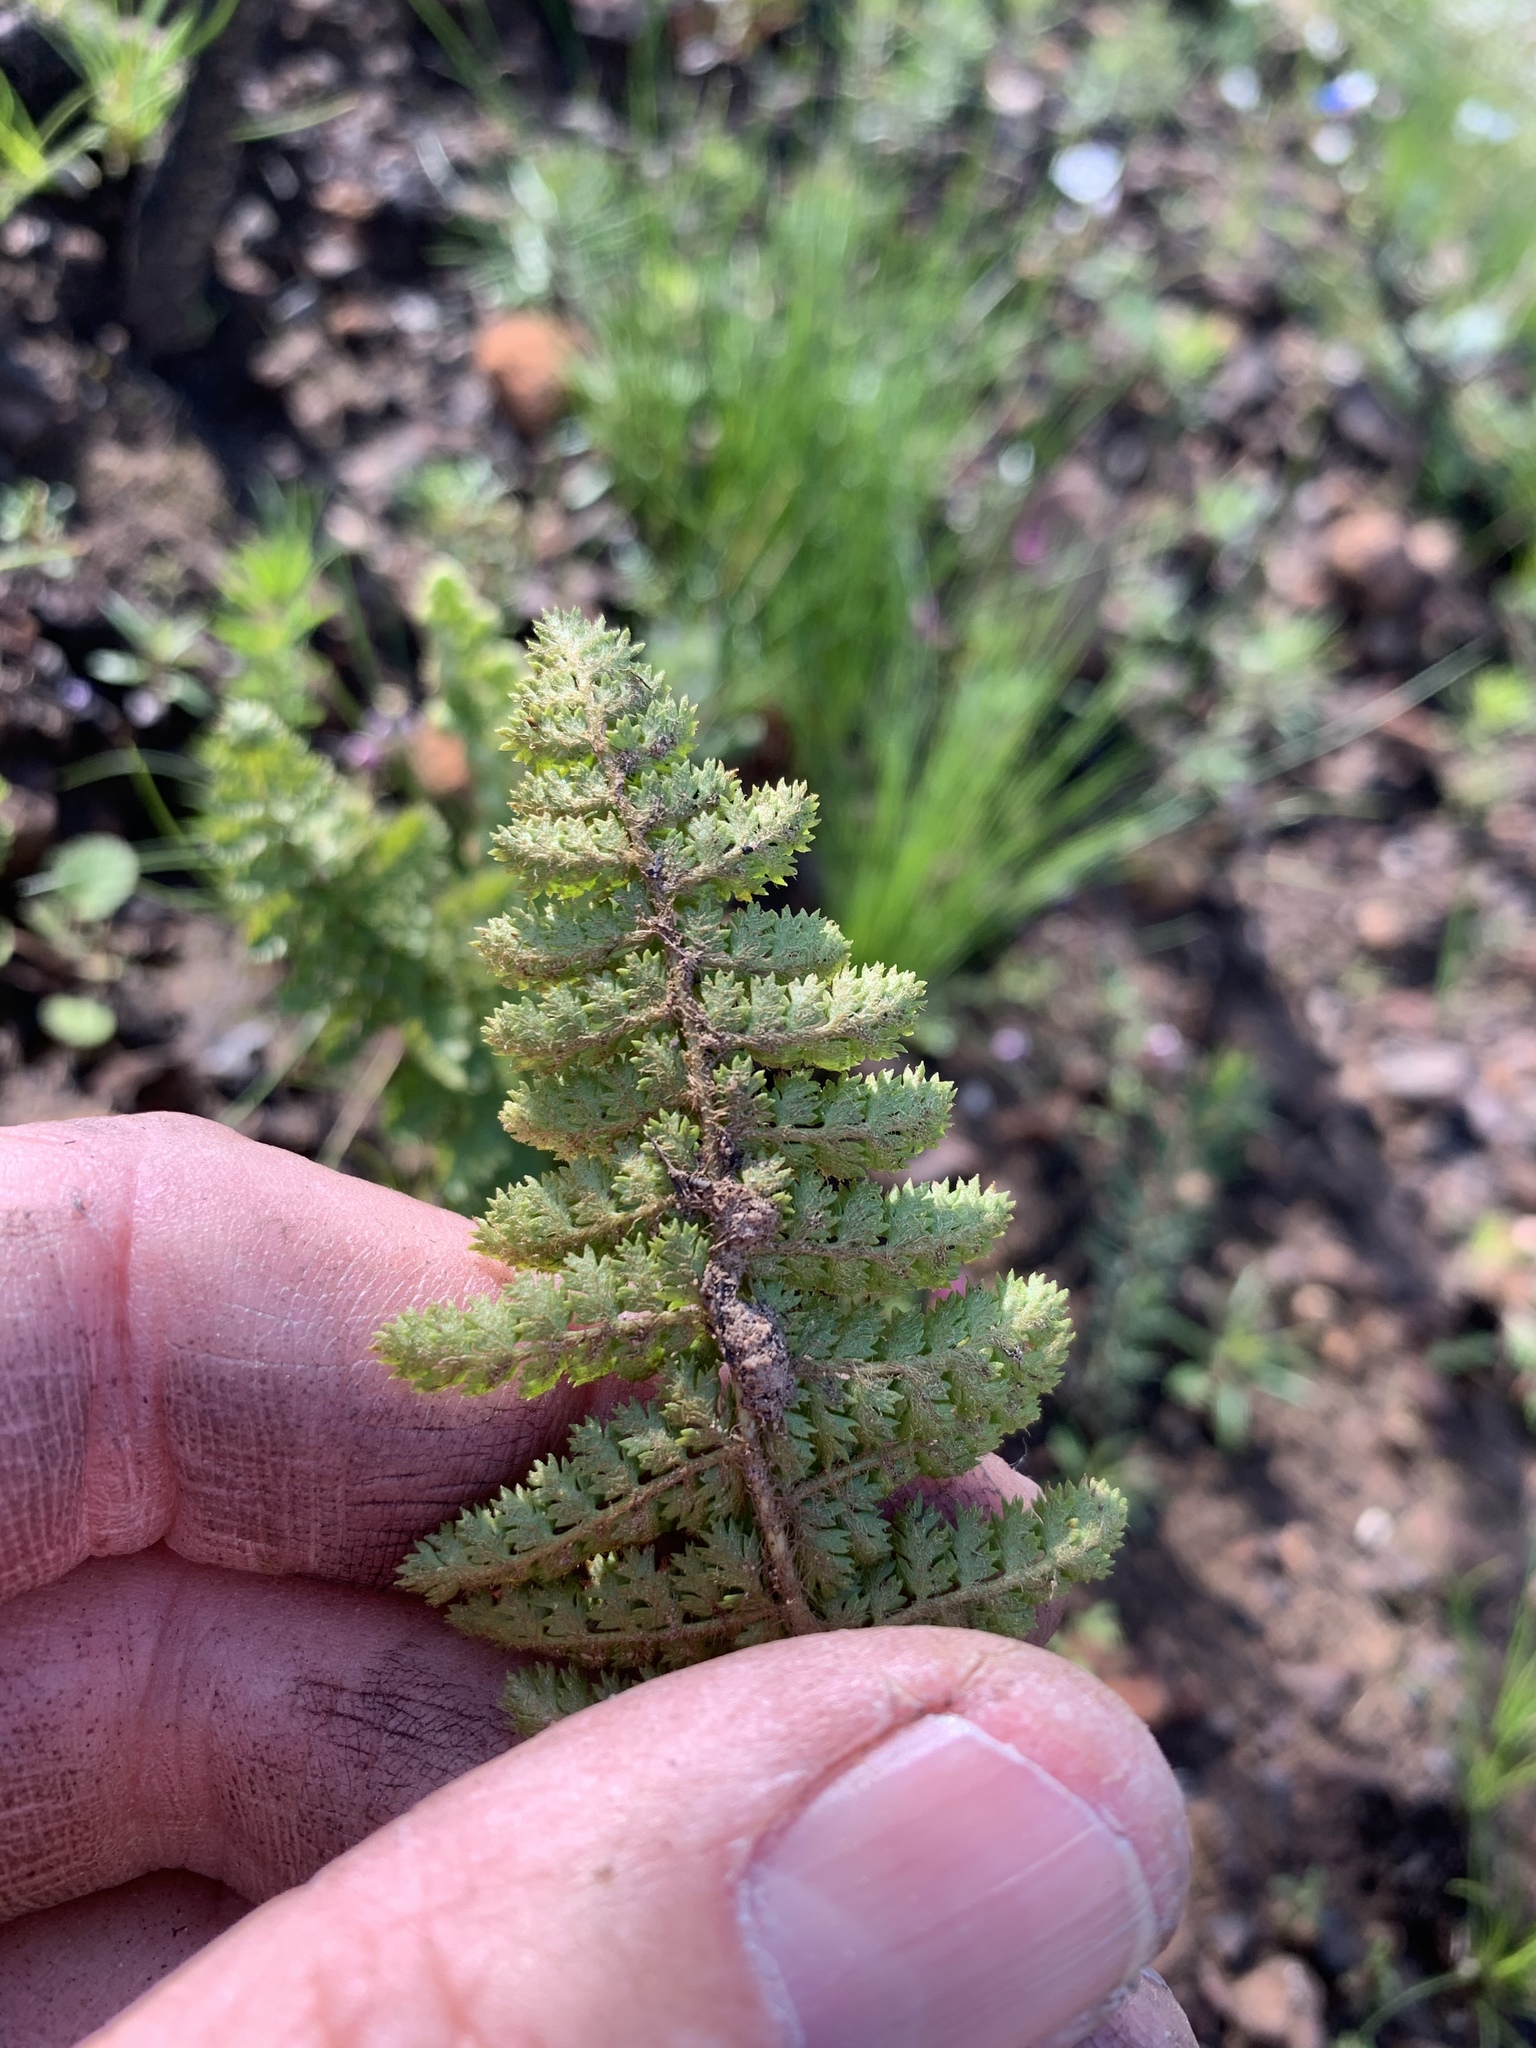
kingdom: Plantae
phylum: Tracheophyta
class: Polypodiopsida
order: Schizaeales
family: Anemiaceae
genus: Anemia
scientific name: Anemia caffrorum
